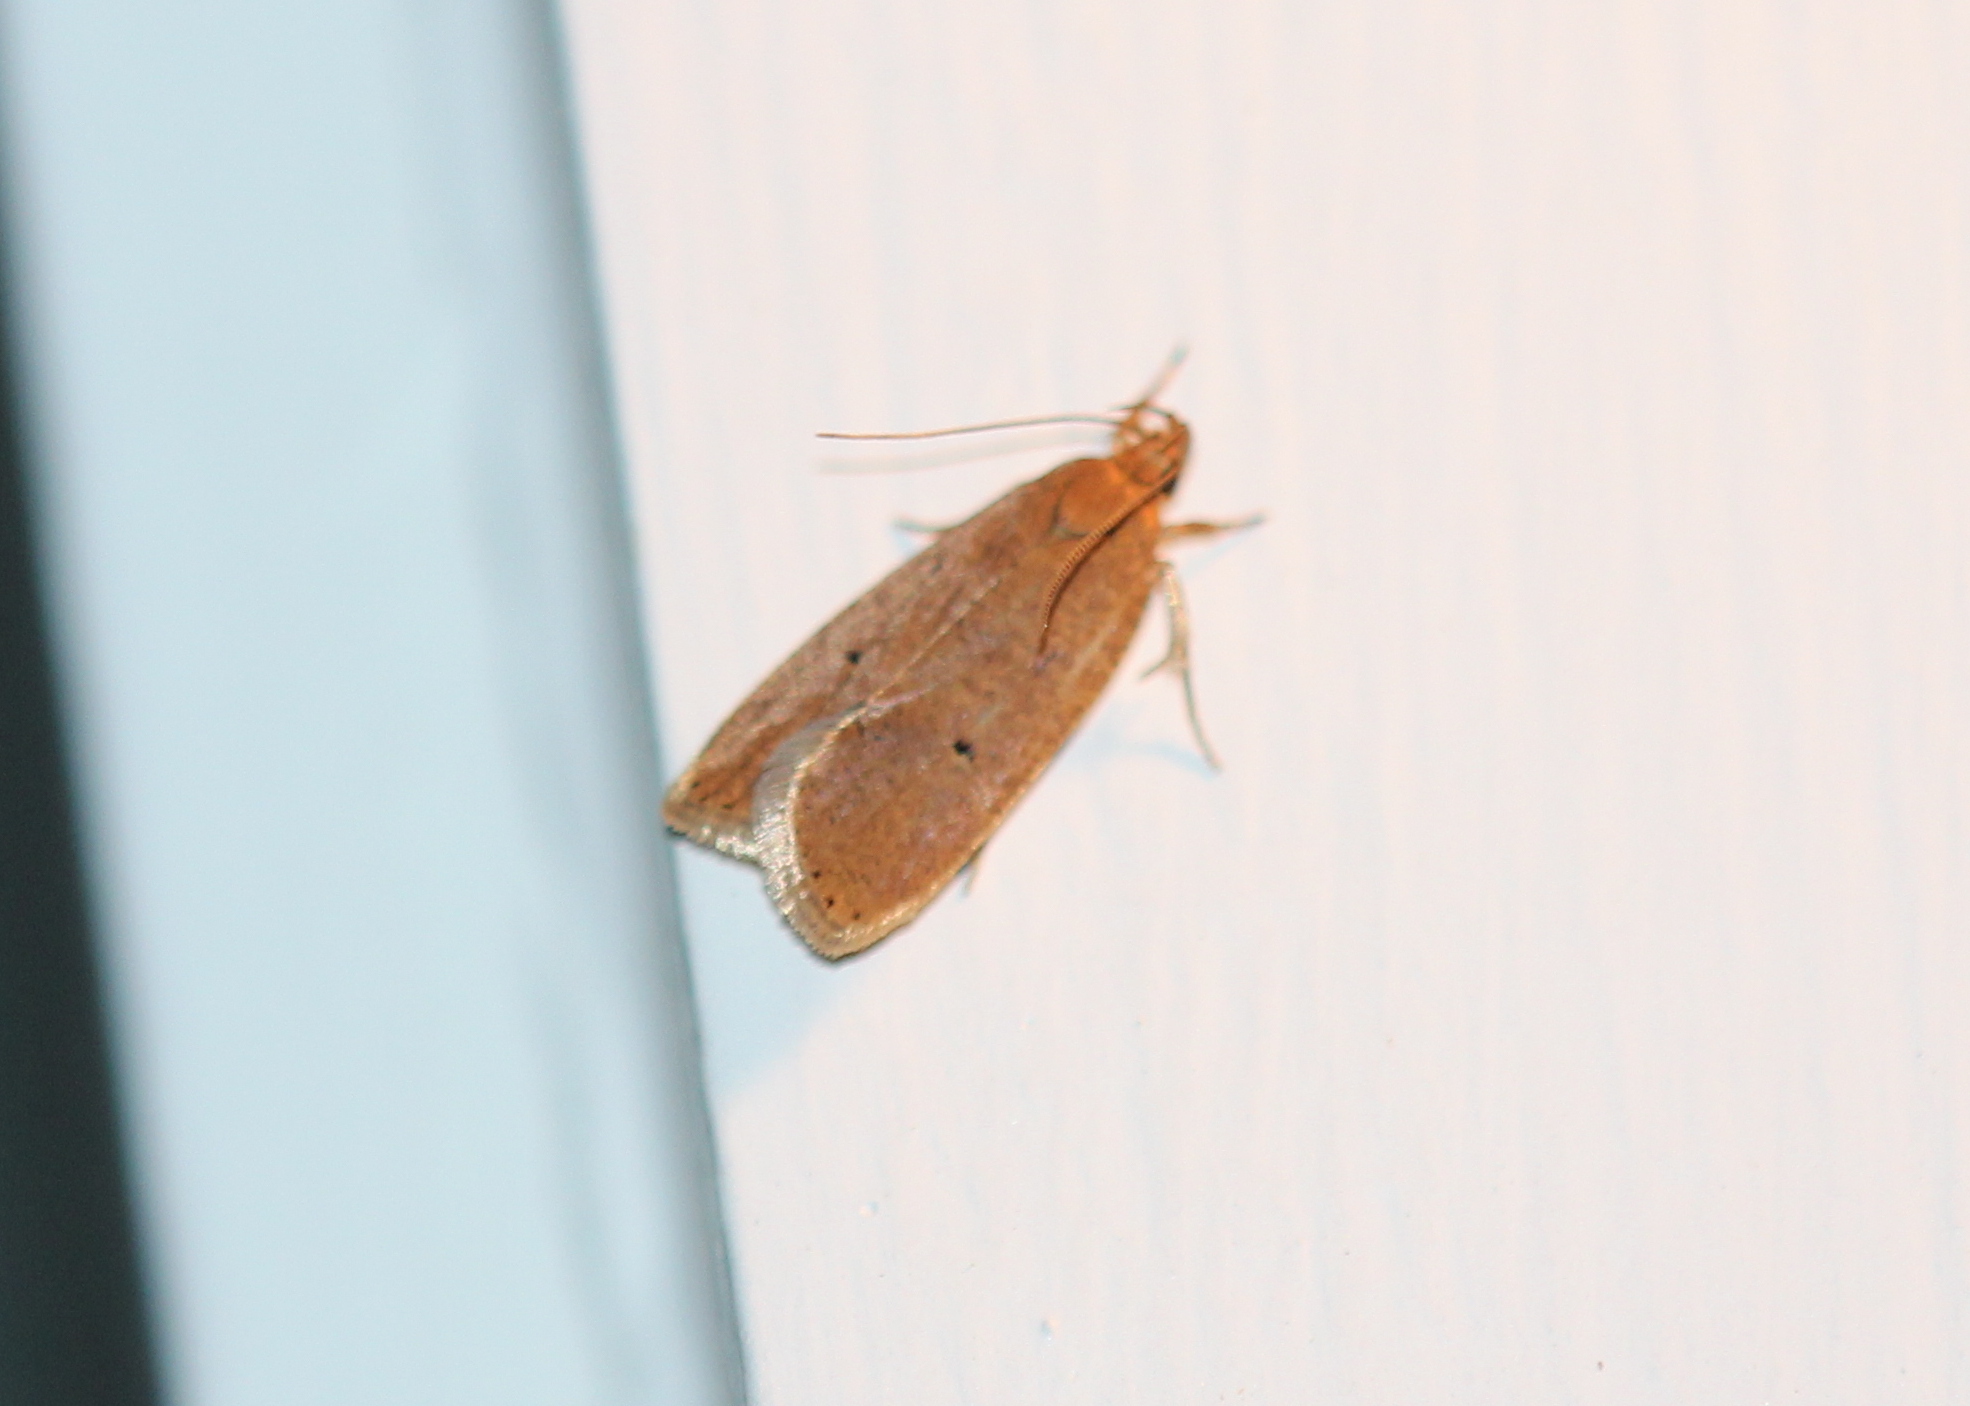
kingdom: Animalia
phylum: Arthropoda
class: Insecta
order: Lepidoptera
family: Depressariidae
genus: Psilocorsis
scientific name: Psilocorsis reflexella
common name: Dotted leaftier moth
